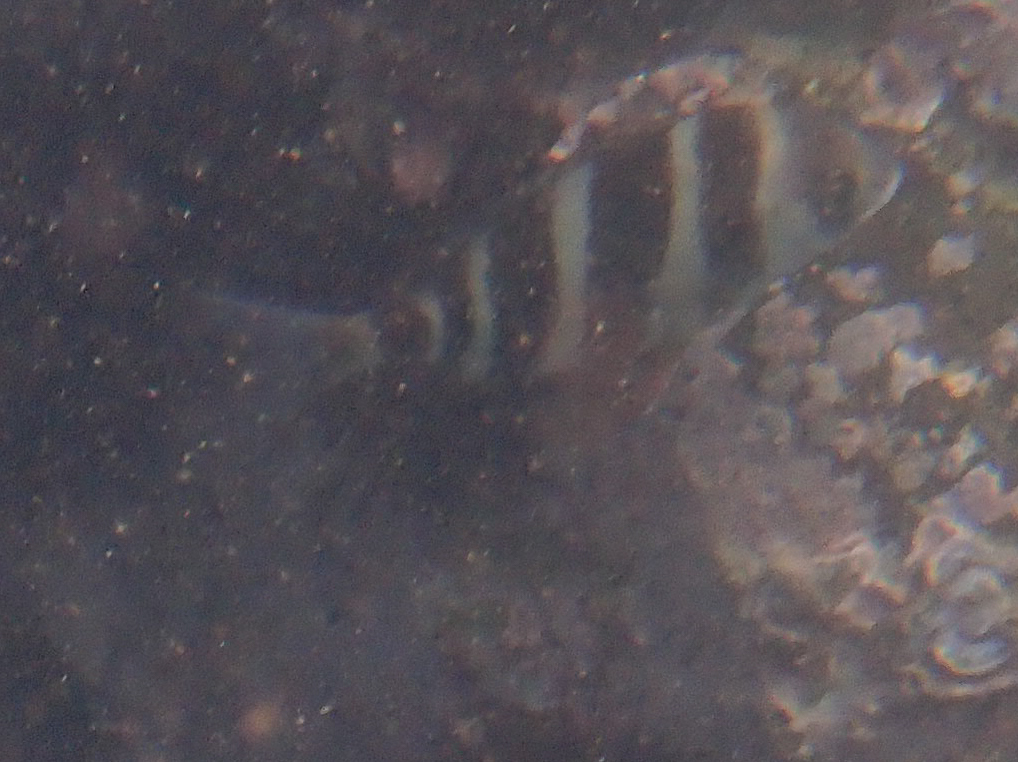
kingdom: Animalia
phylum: Chordata
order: Perciformes
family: Sparidae
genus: Diplodus
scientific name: Diplodus cervinus
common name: Oman porgy
